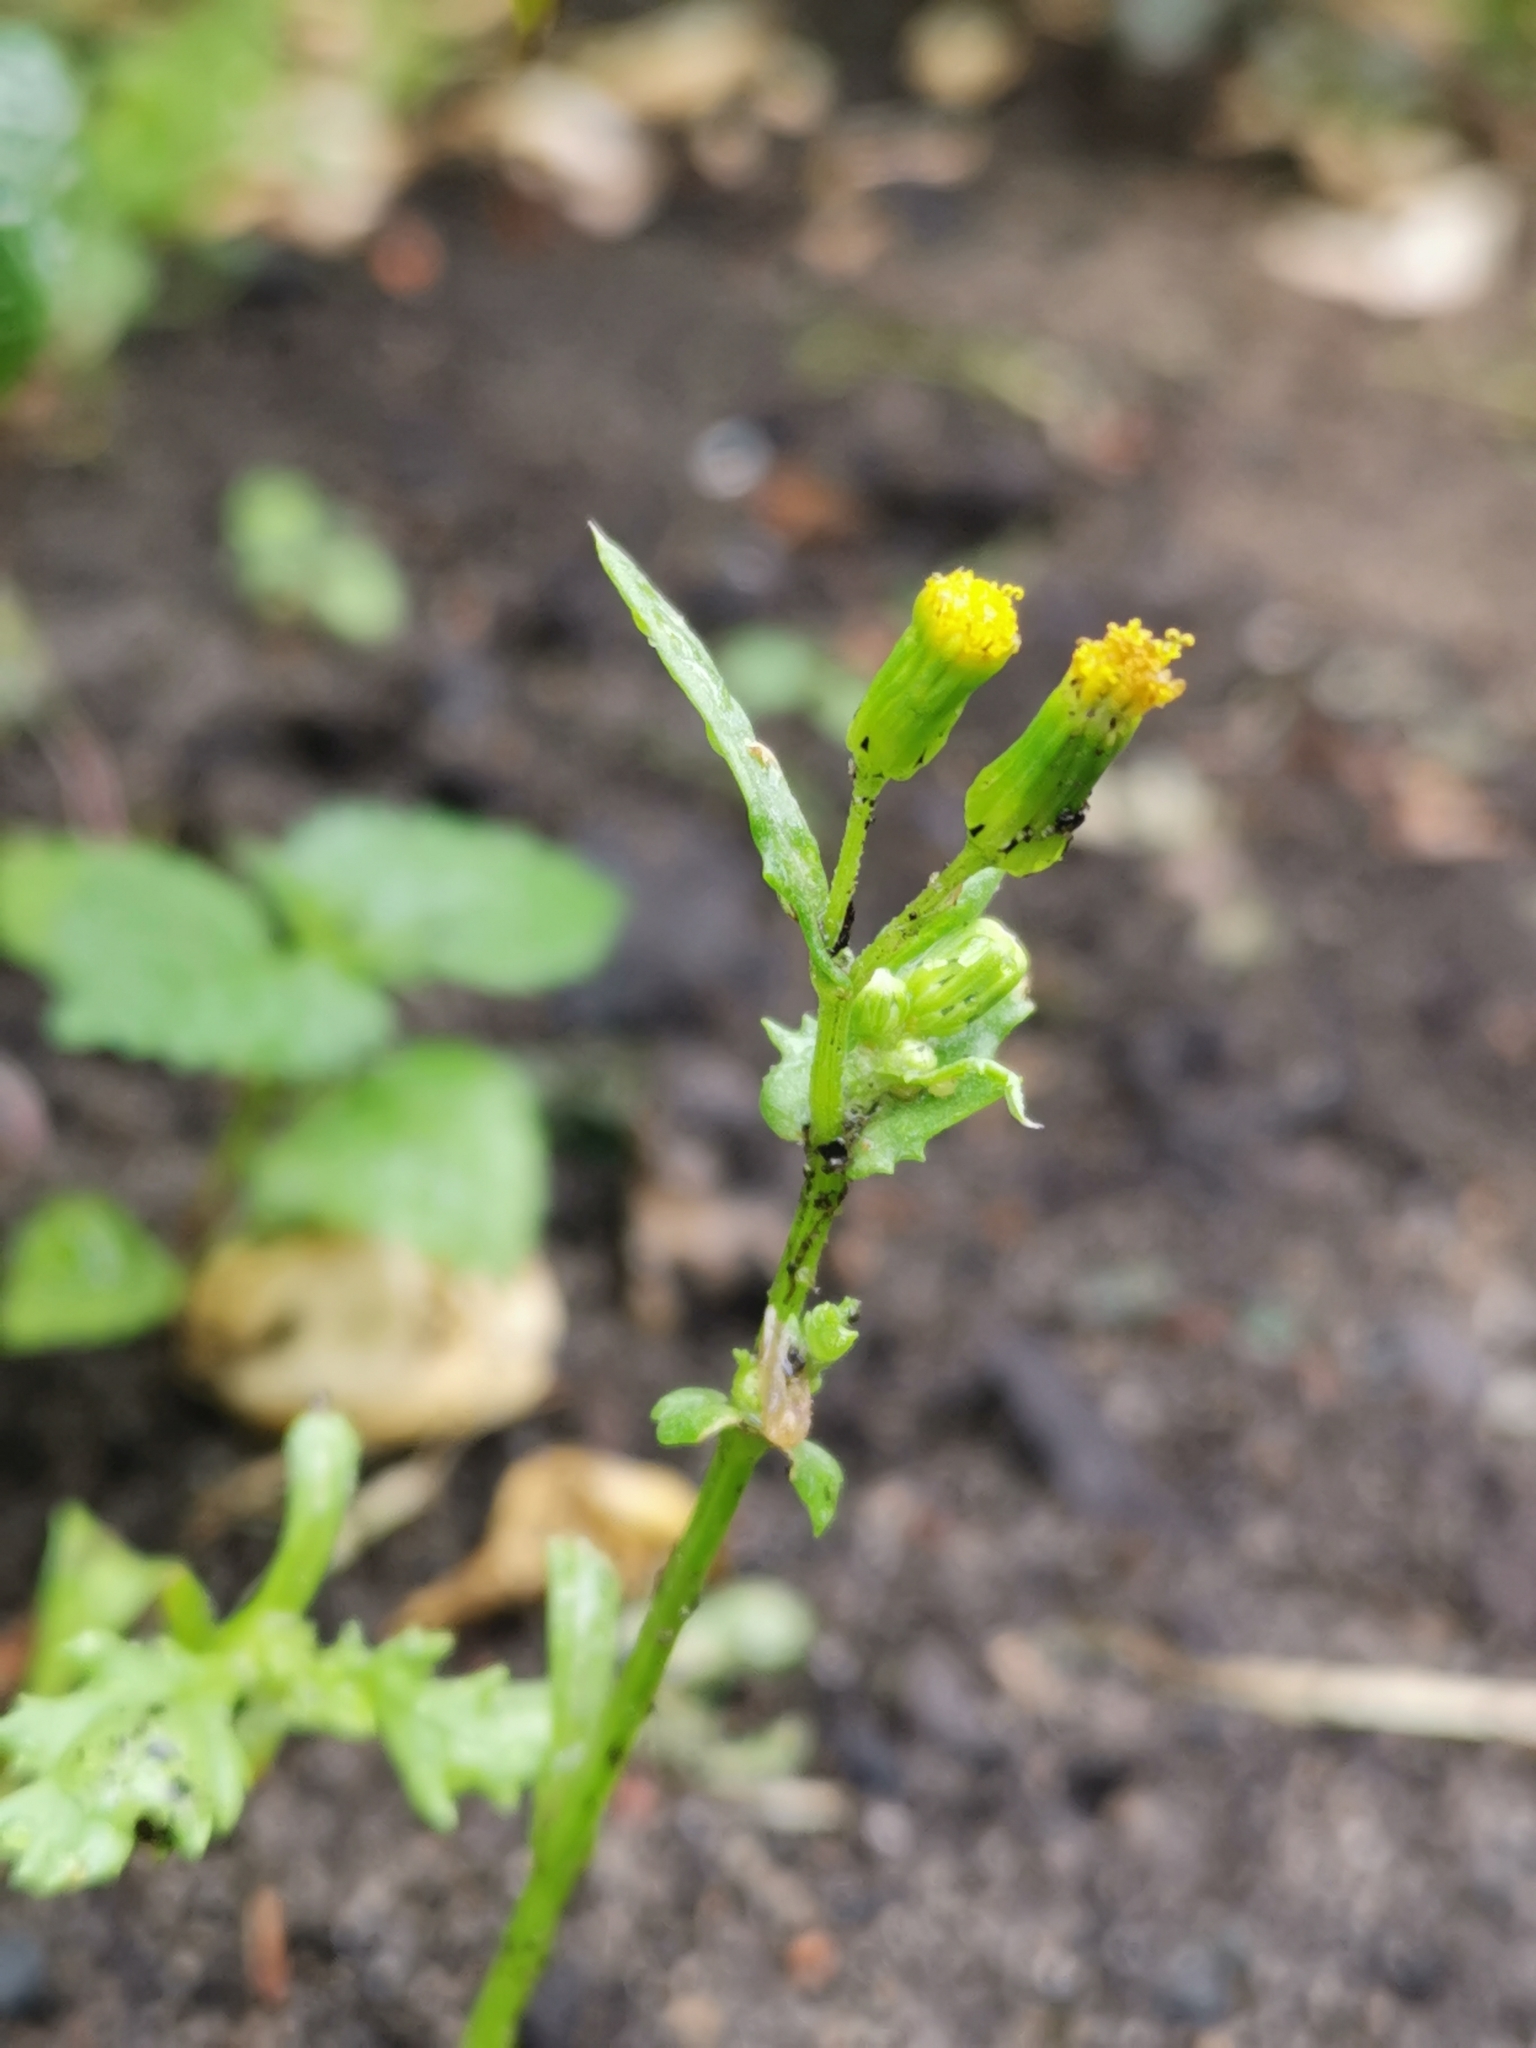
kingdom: Plantae
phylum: Tracheophyta
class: Magnoliopsida
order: Asterales
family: Asteraceae
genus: Senecio
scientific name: Senecio vulgaris
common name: Old-man-in-the-spring
